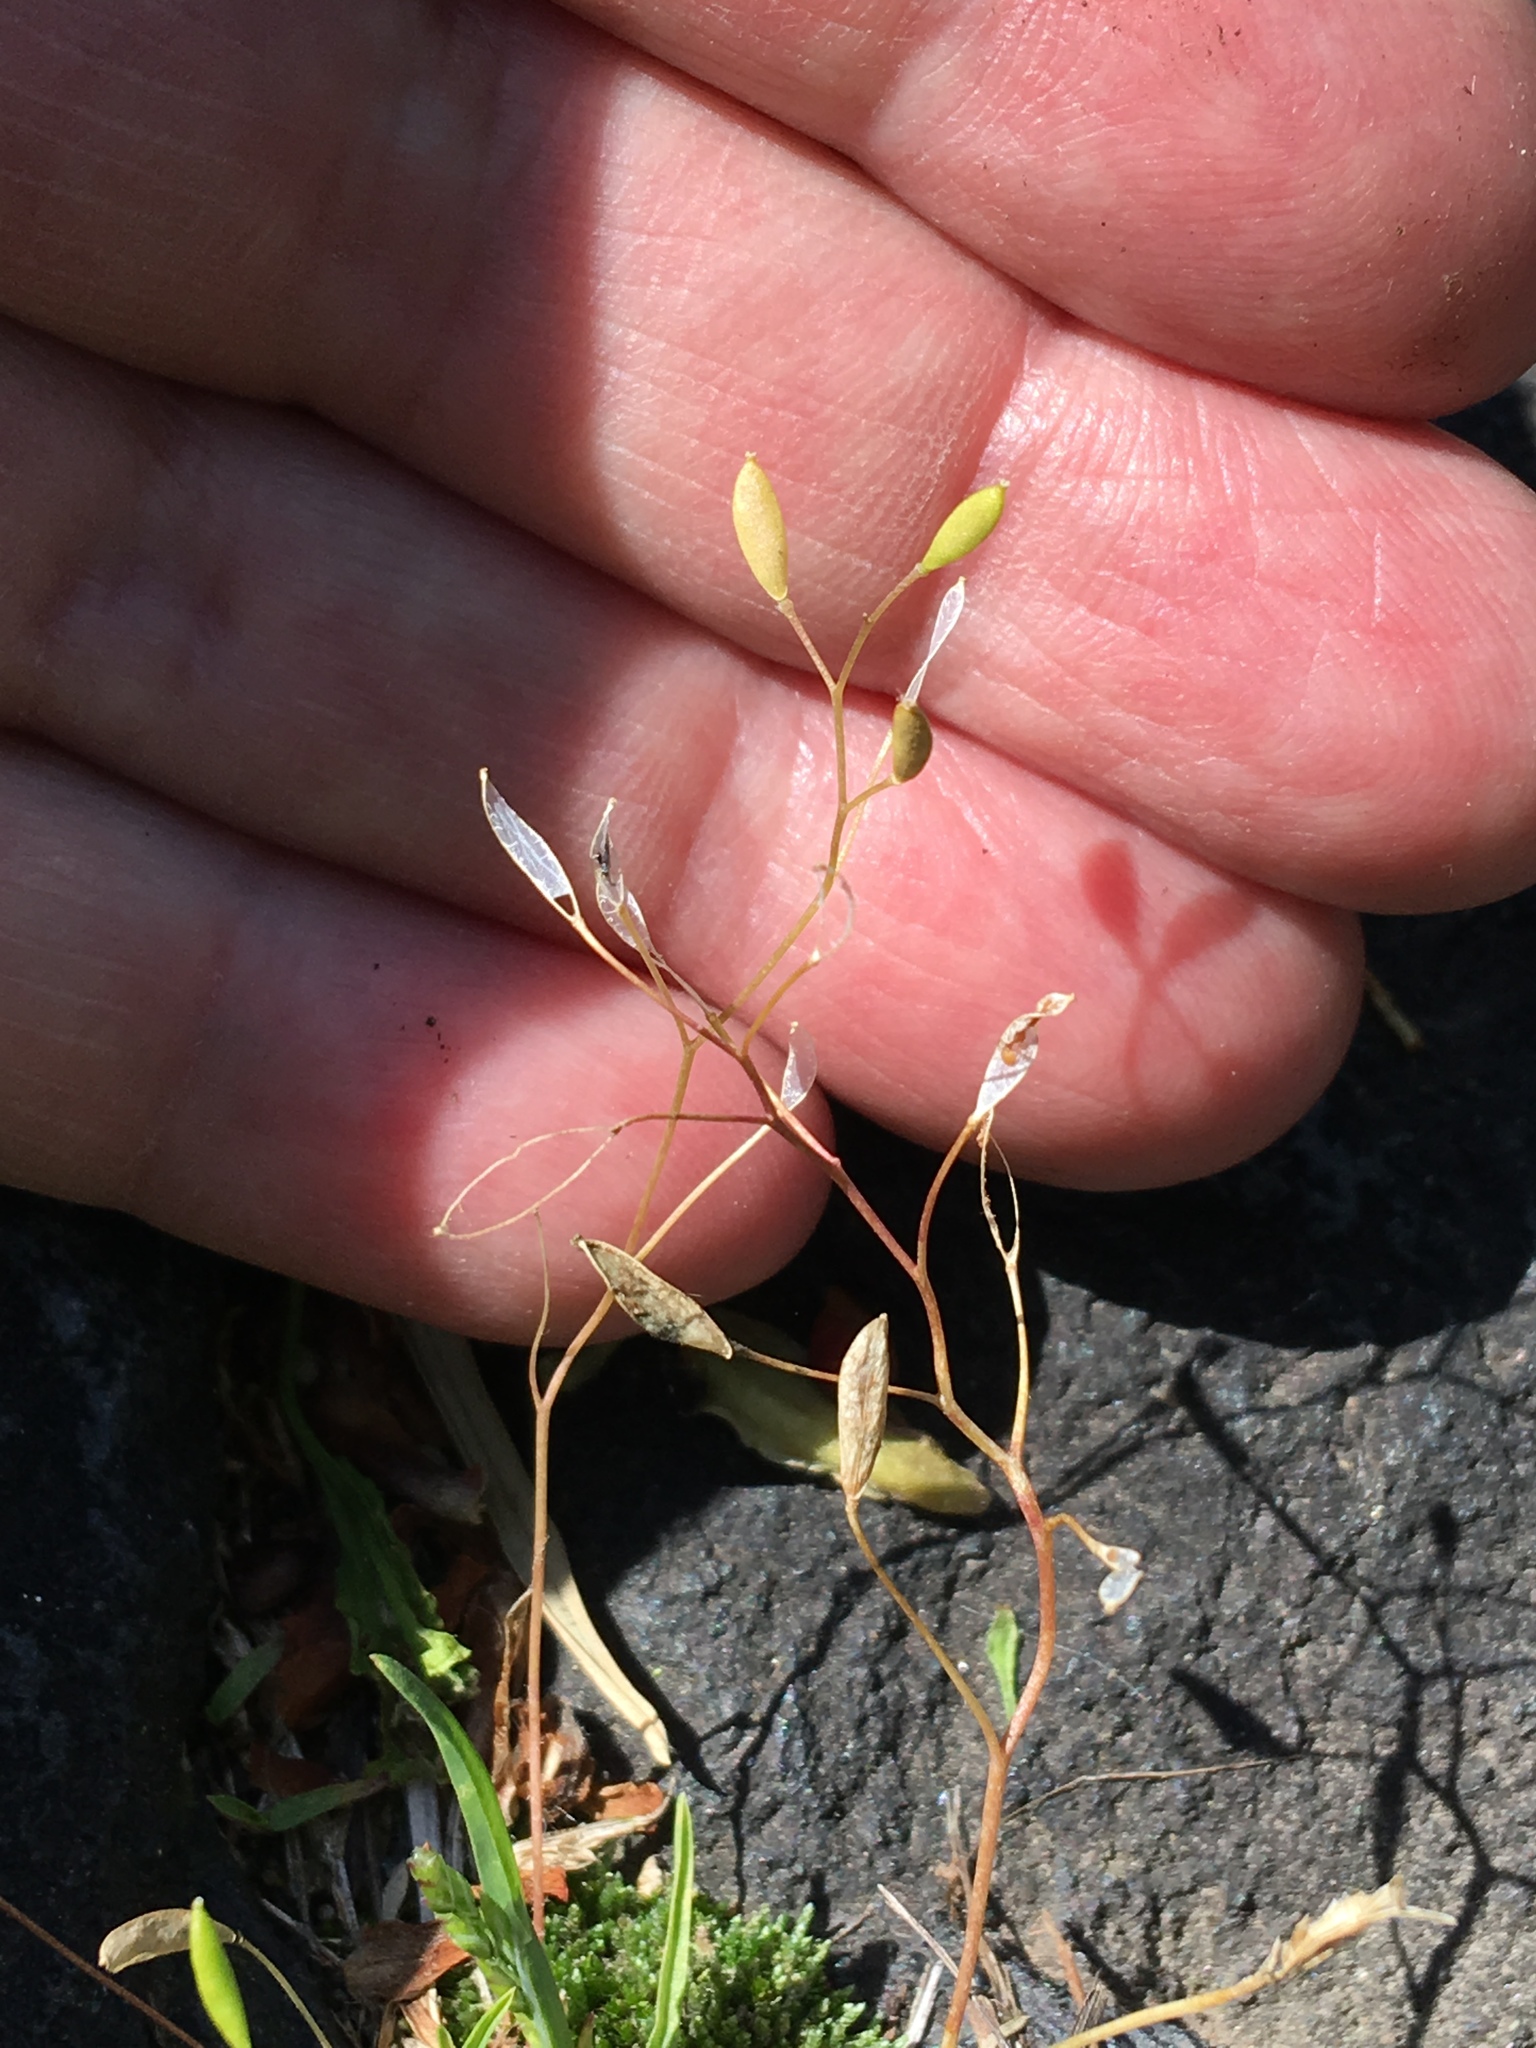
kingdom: Plantae
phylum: Tracheophyta
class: Magnoliopsida
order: Brassicales
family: Brassicaceae
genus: Draba
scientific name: Draba verna
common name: Spring draba
